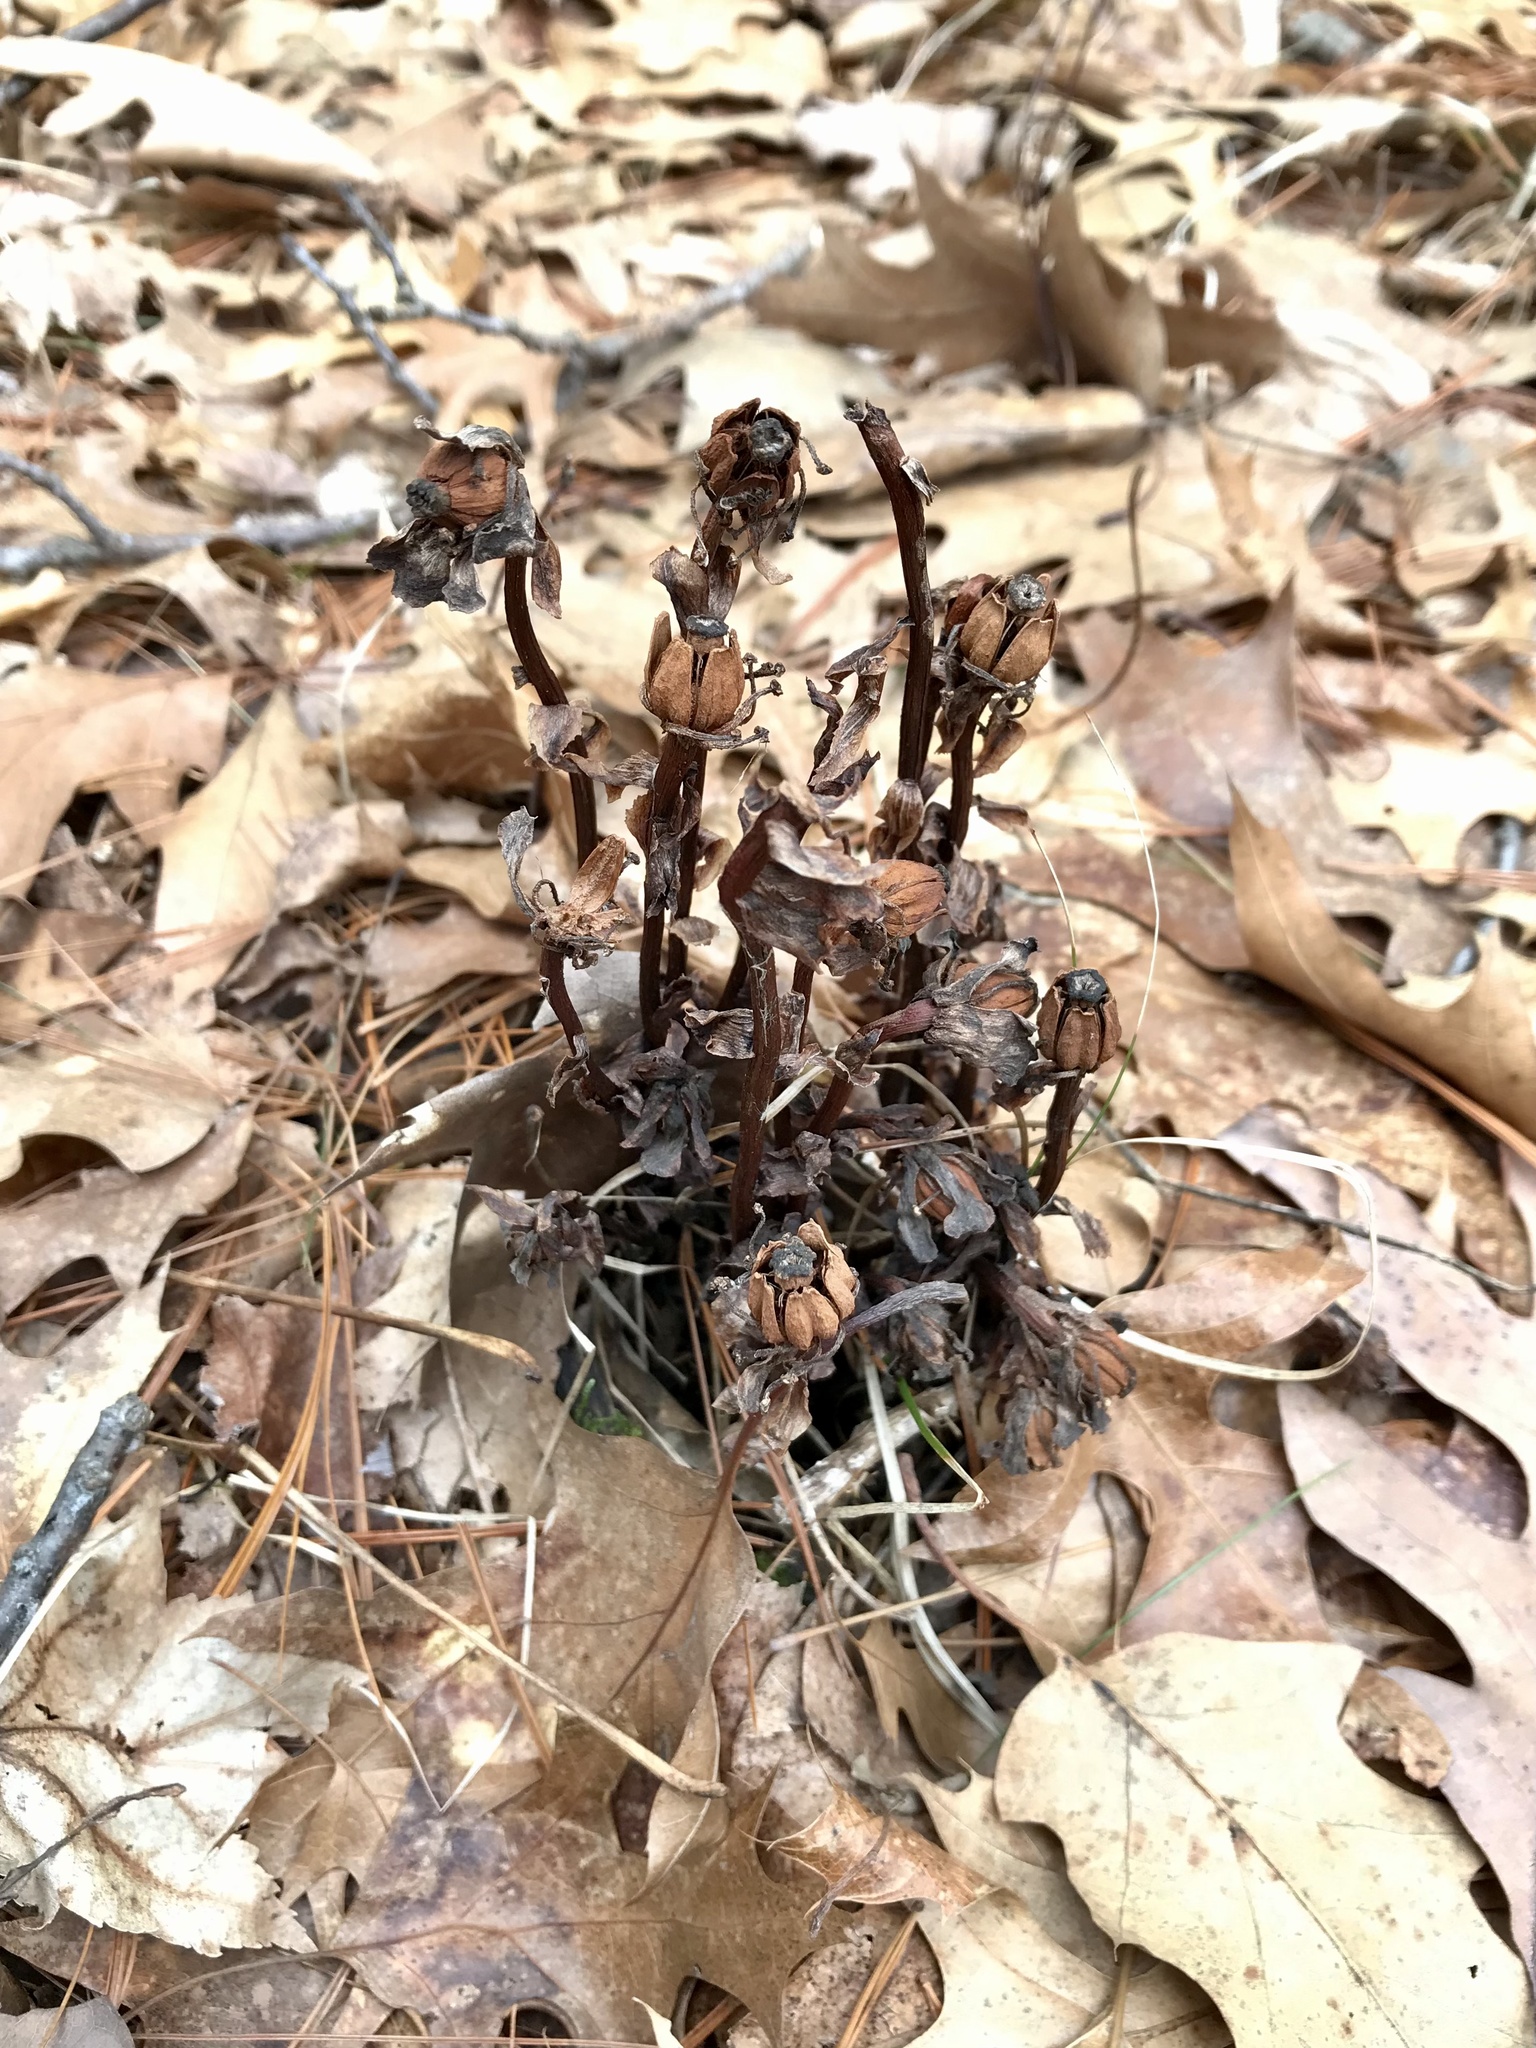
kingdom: Plantae
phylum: Tracheophyta
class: Magnoliopsida
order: Ericales
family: Ericaceae
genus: Monotropa
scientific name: Monotropa uniflora
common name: Convulsion root
